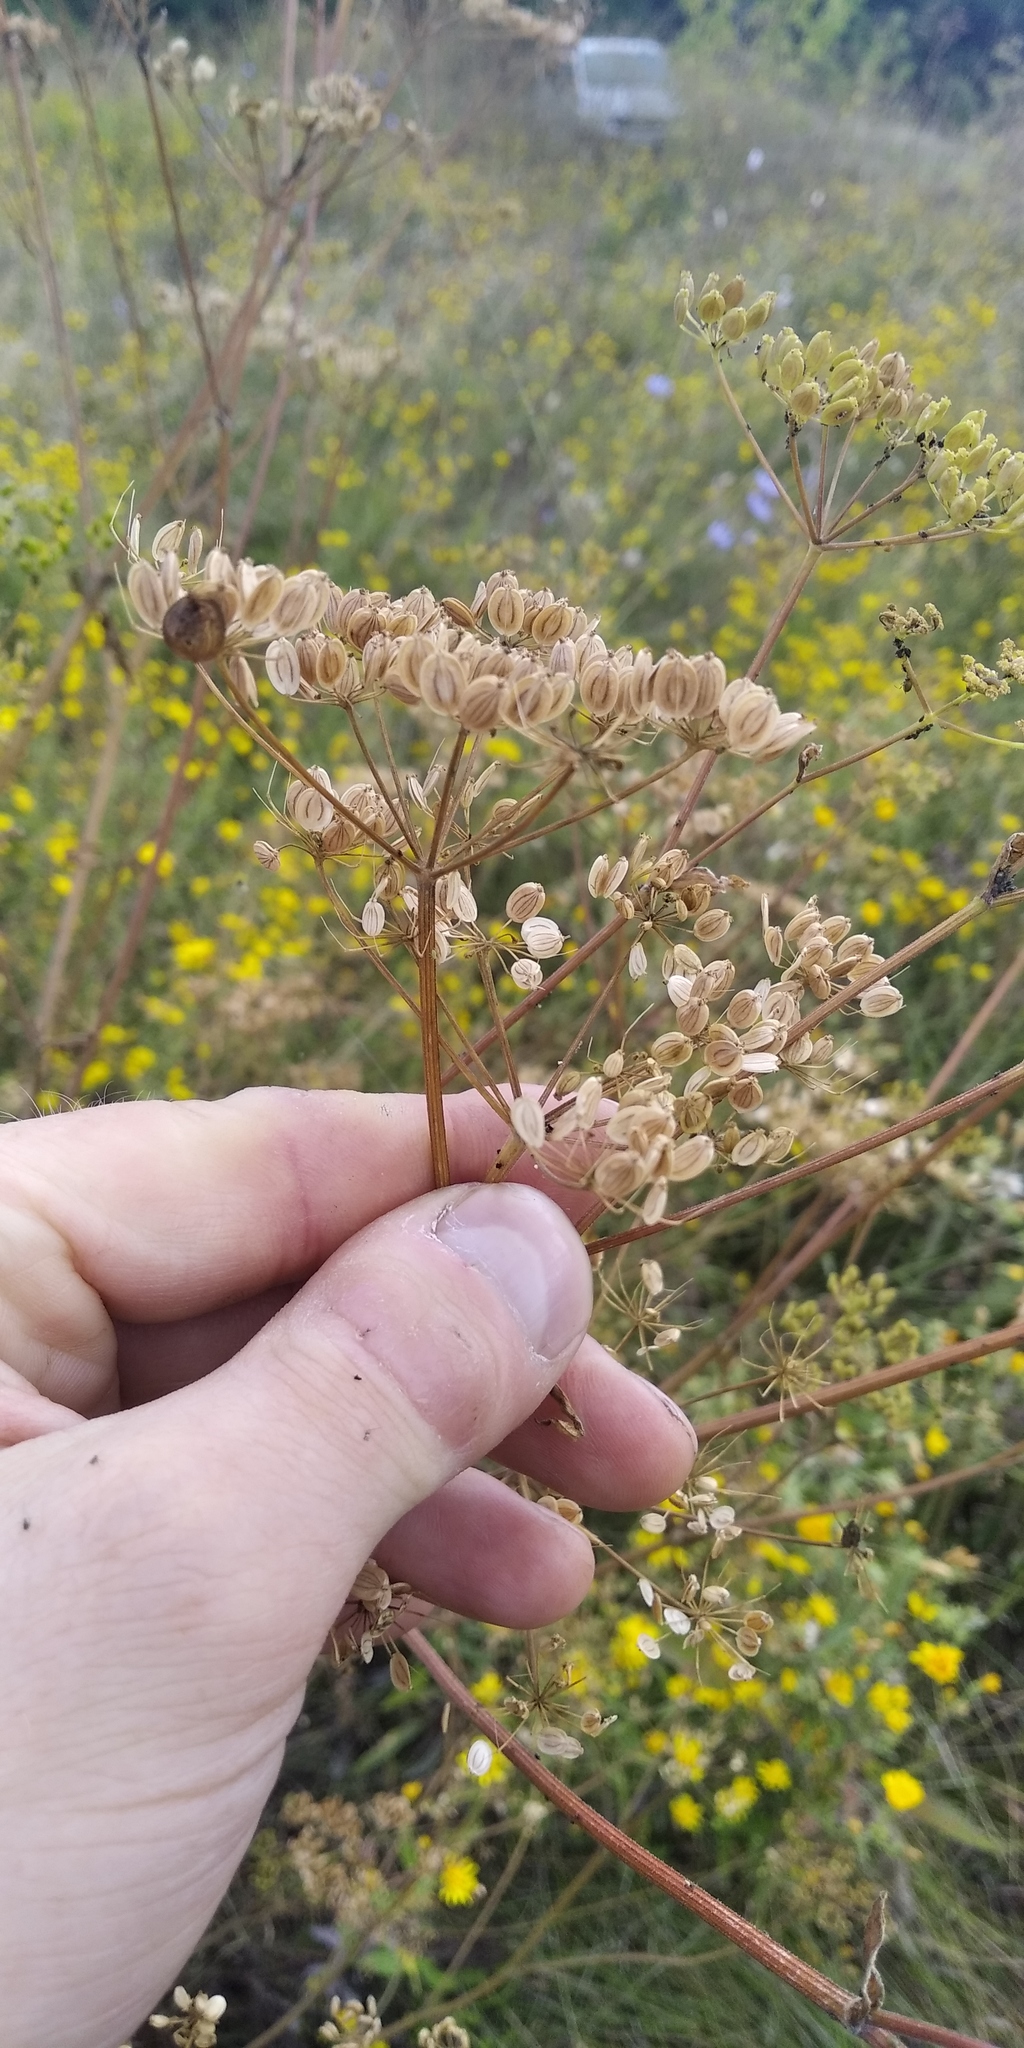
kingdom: Plantae
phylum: Tracheophyta
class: Magnoliopsida
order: Apiales
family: Apiaceae
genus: Pastinaca
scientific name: Pastinaca sativa
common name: Wild parsnip
